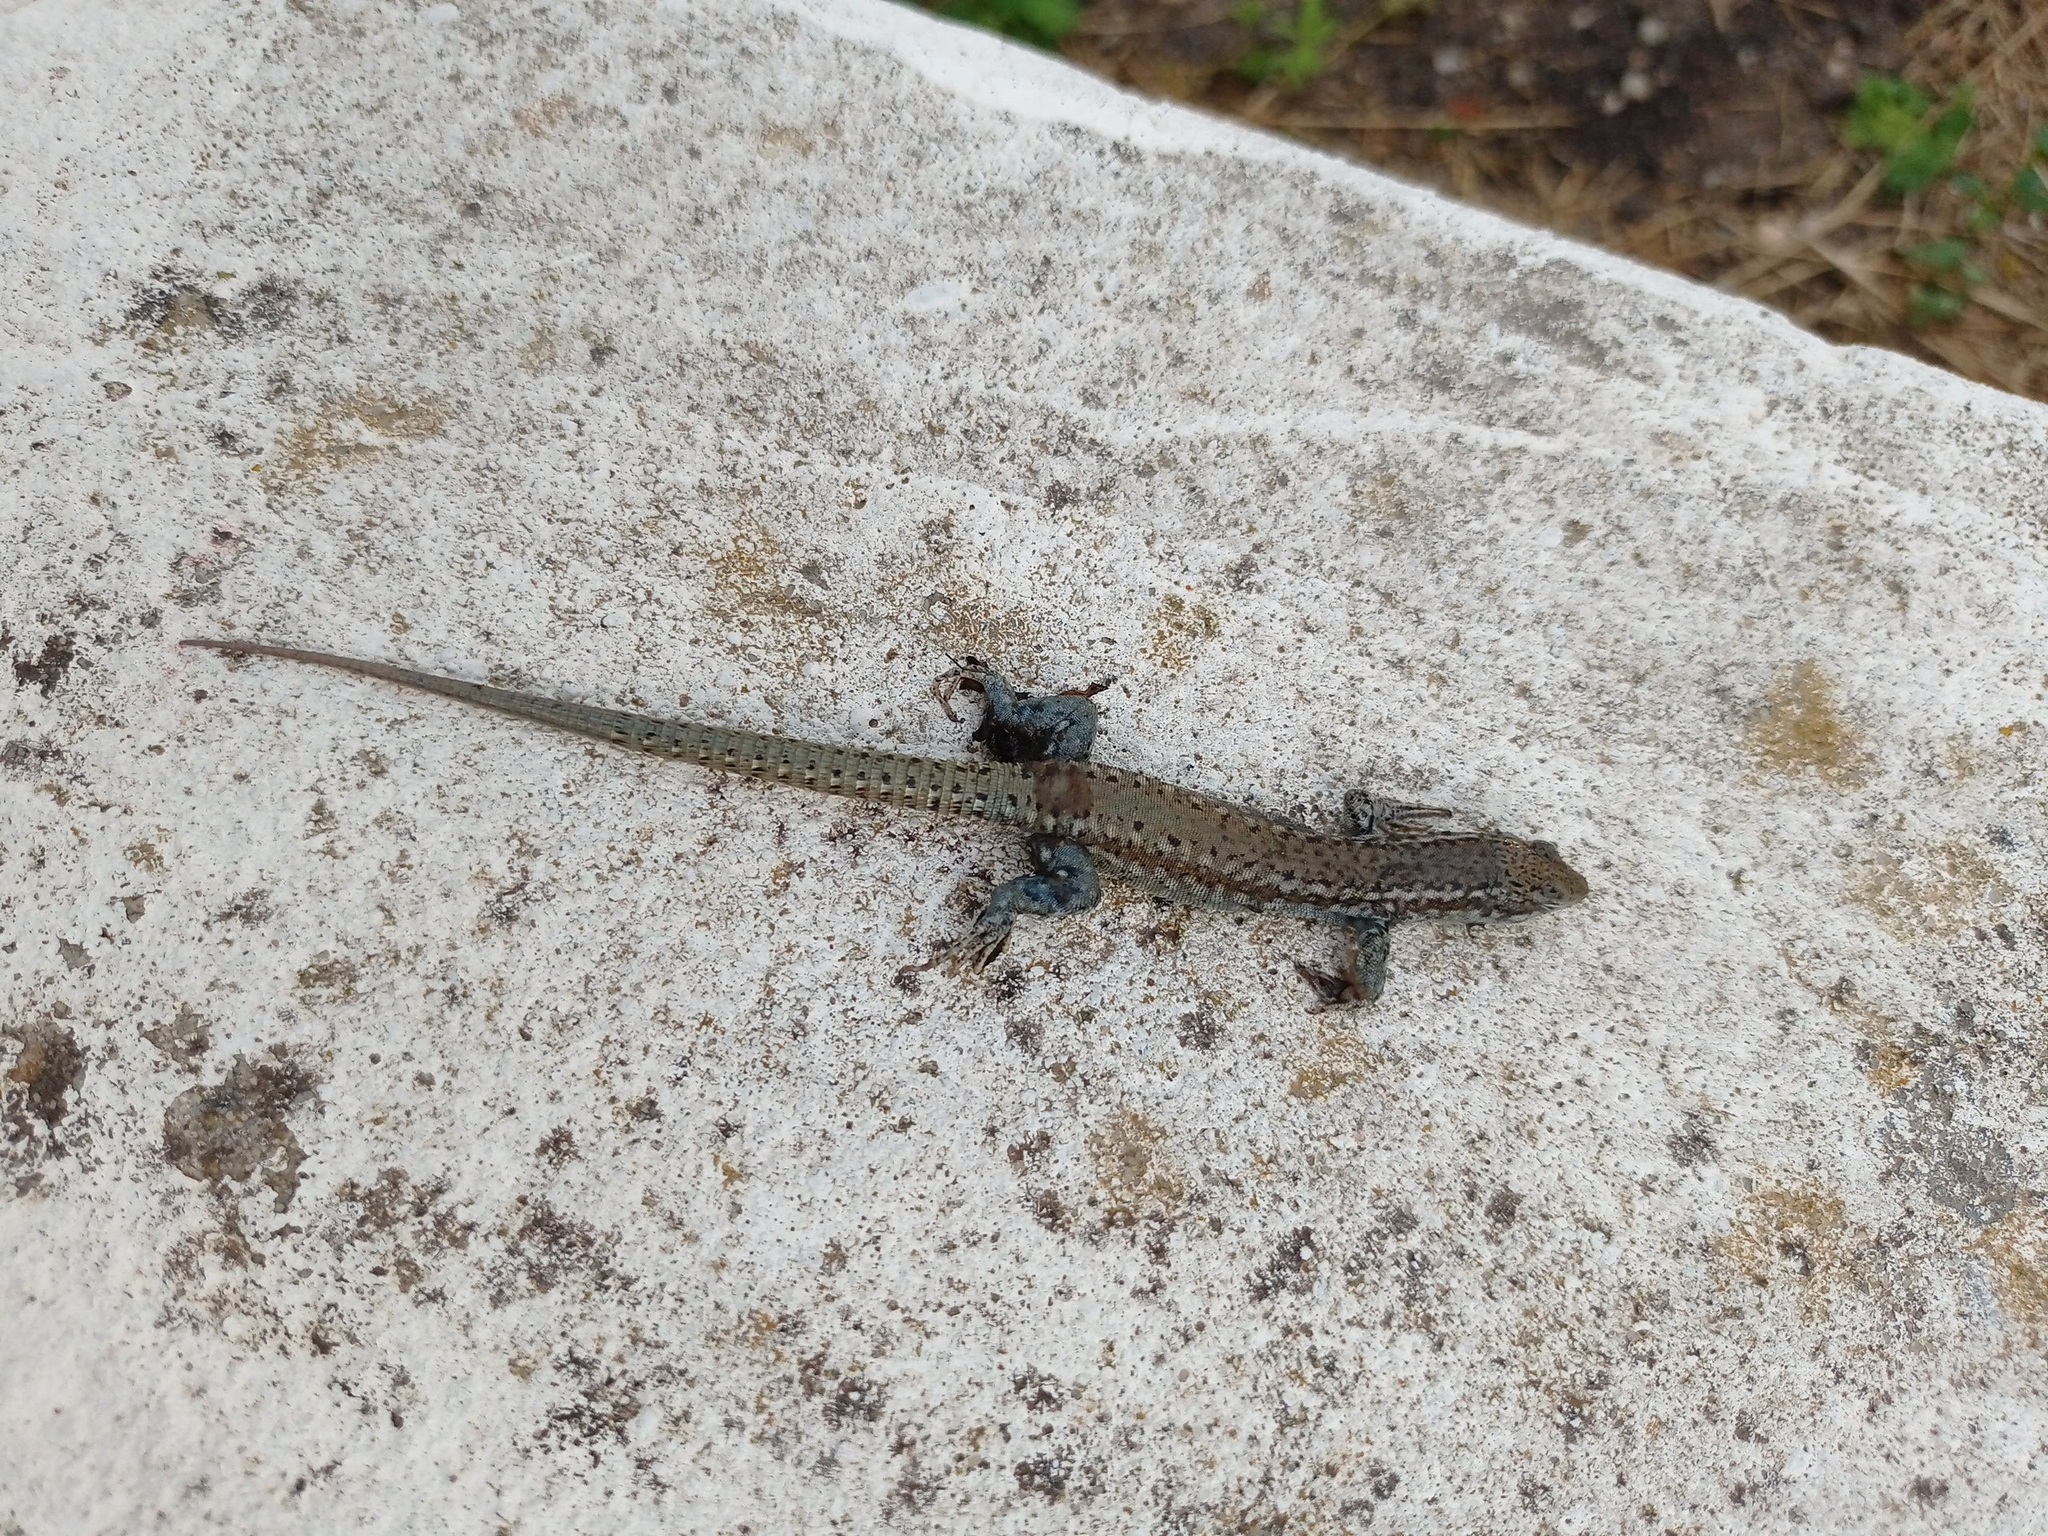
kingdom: Animalia
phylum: Chordata
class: Squamata
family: Lacertidae
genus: Podarcis
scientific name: Podarcis virescens
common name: Geniez’s wall lizard
